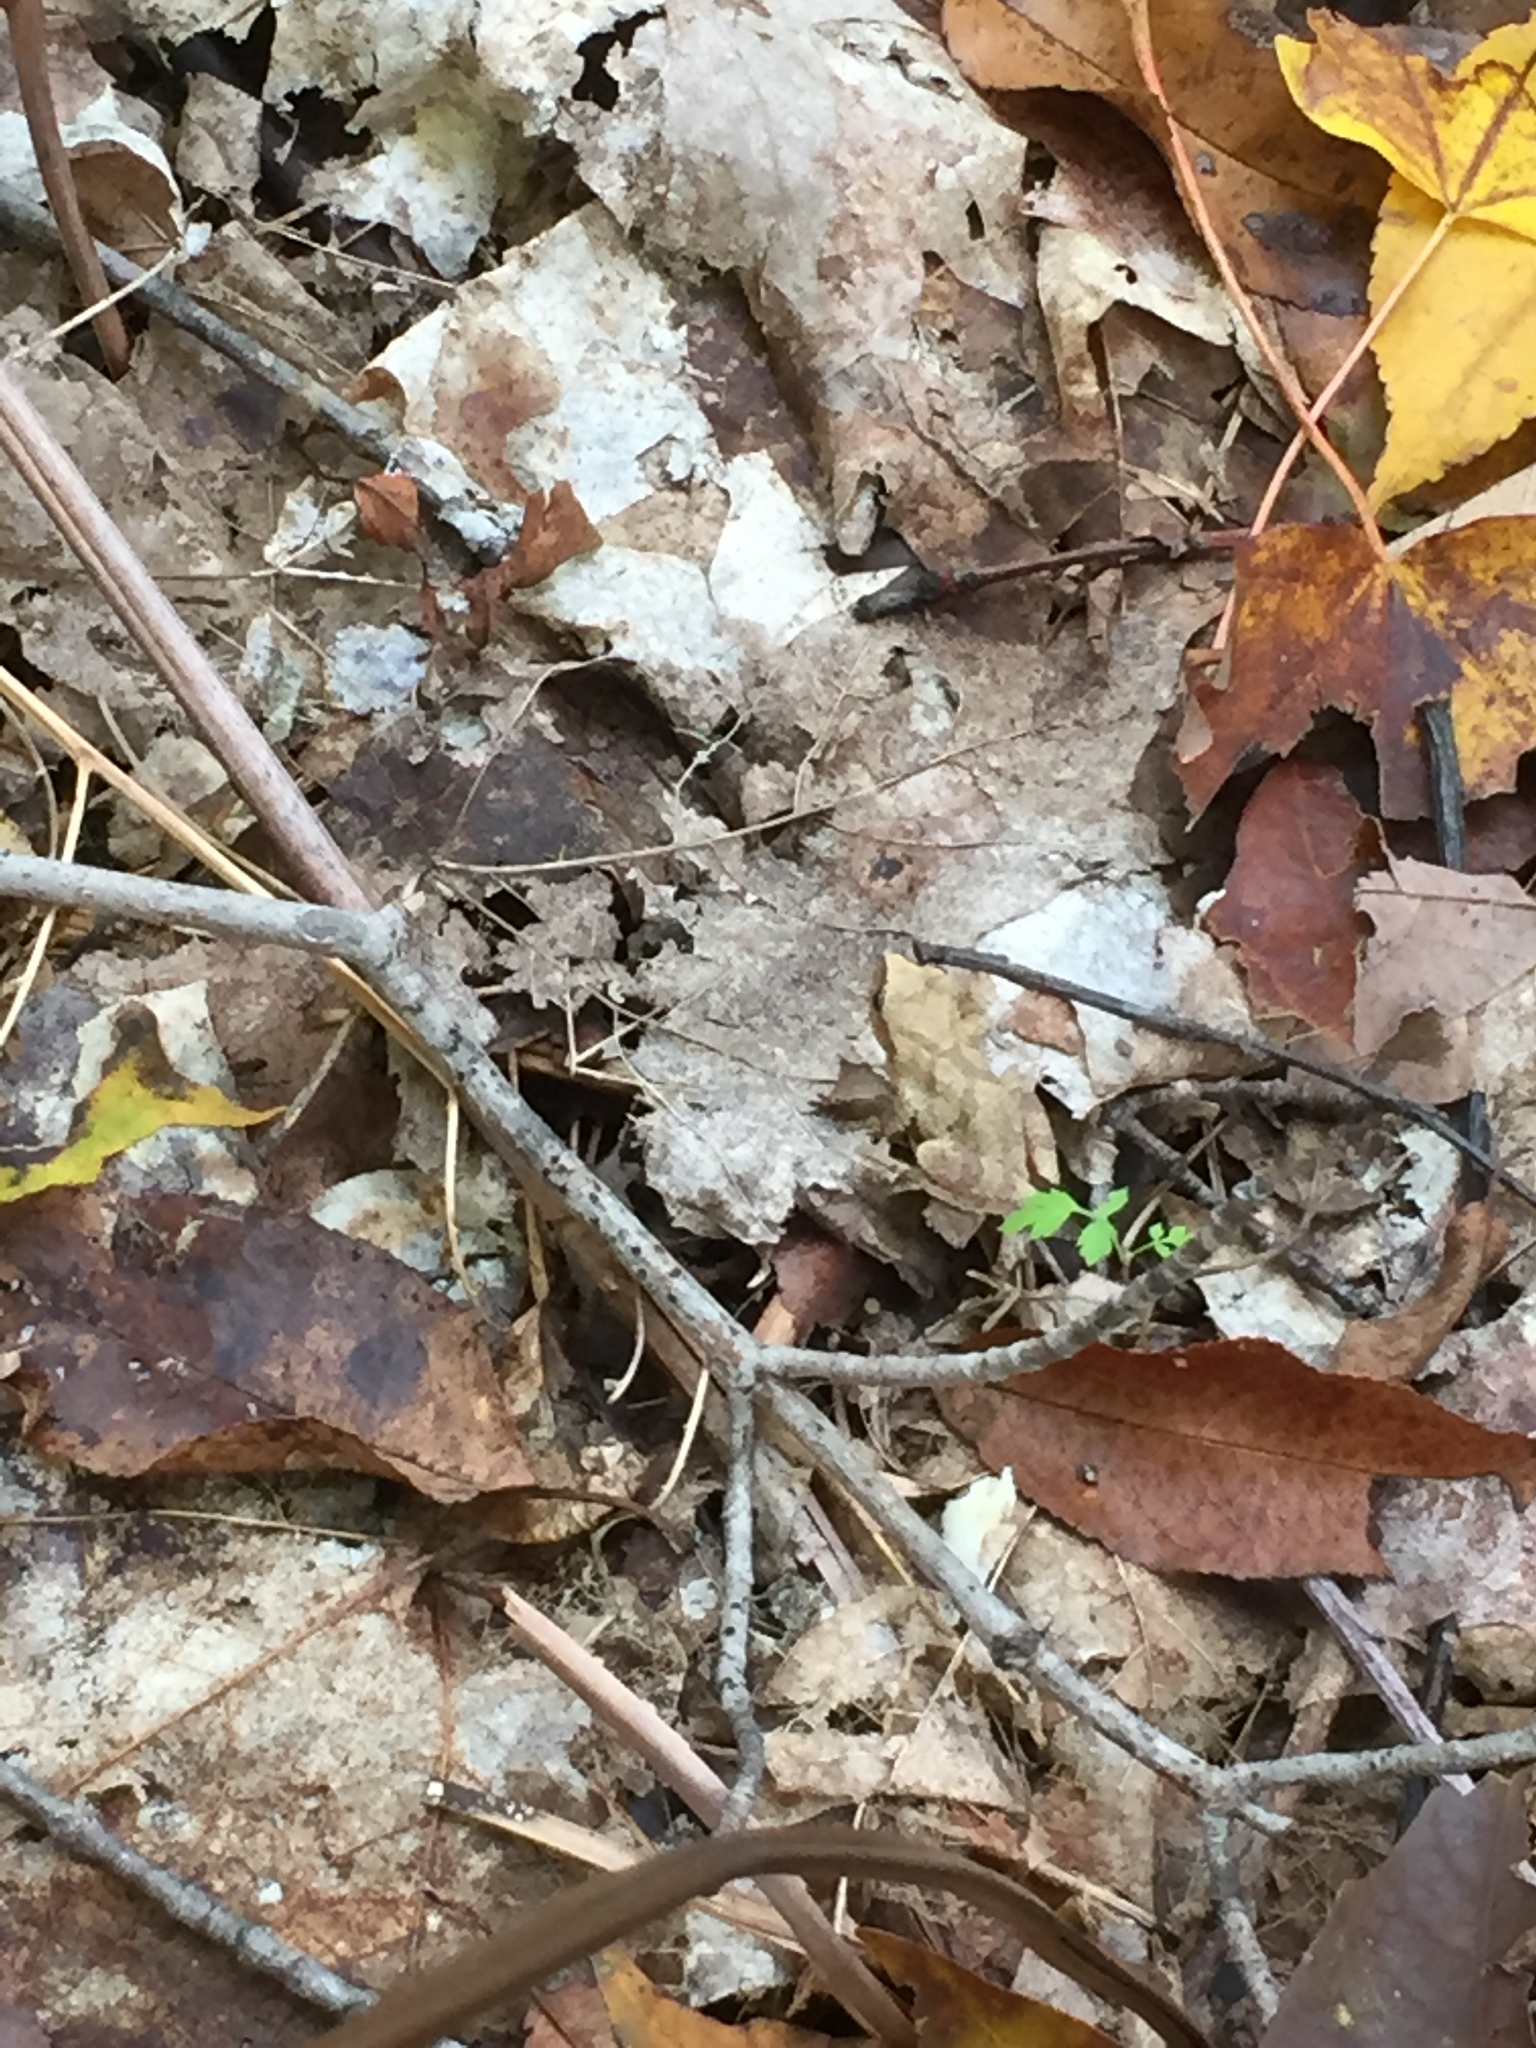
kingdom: Animalia
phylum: Chordata
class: Amphibia
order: Anura
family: Hylidae
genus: Pseudacris
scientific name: Pseudacris crucifer
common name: Spring peeper
